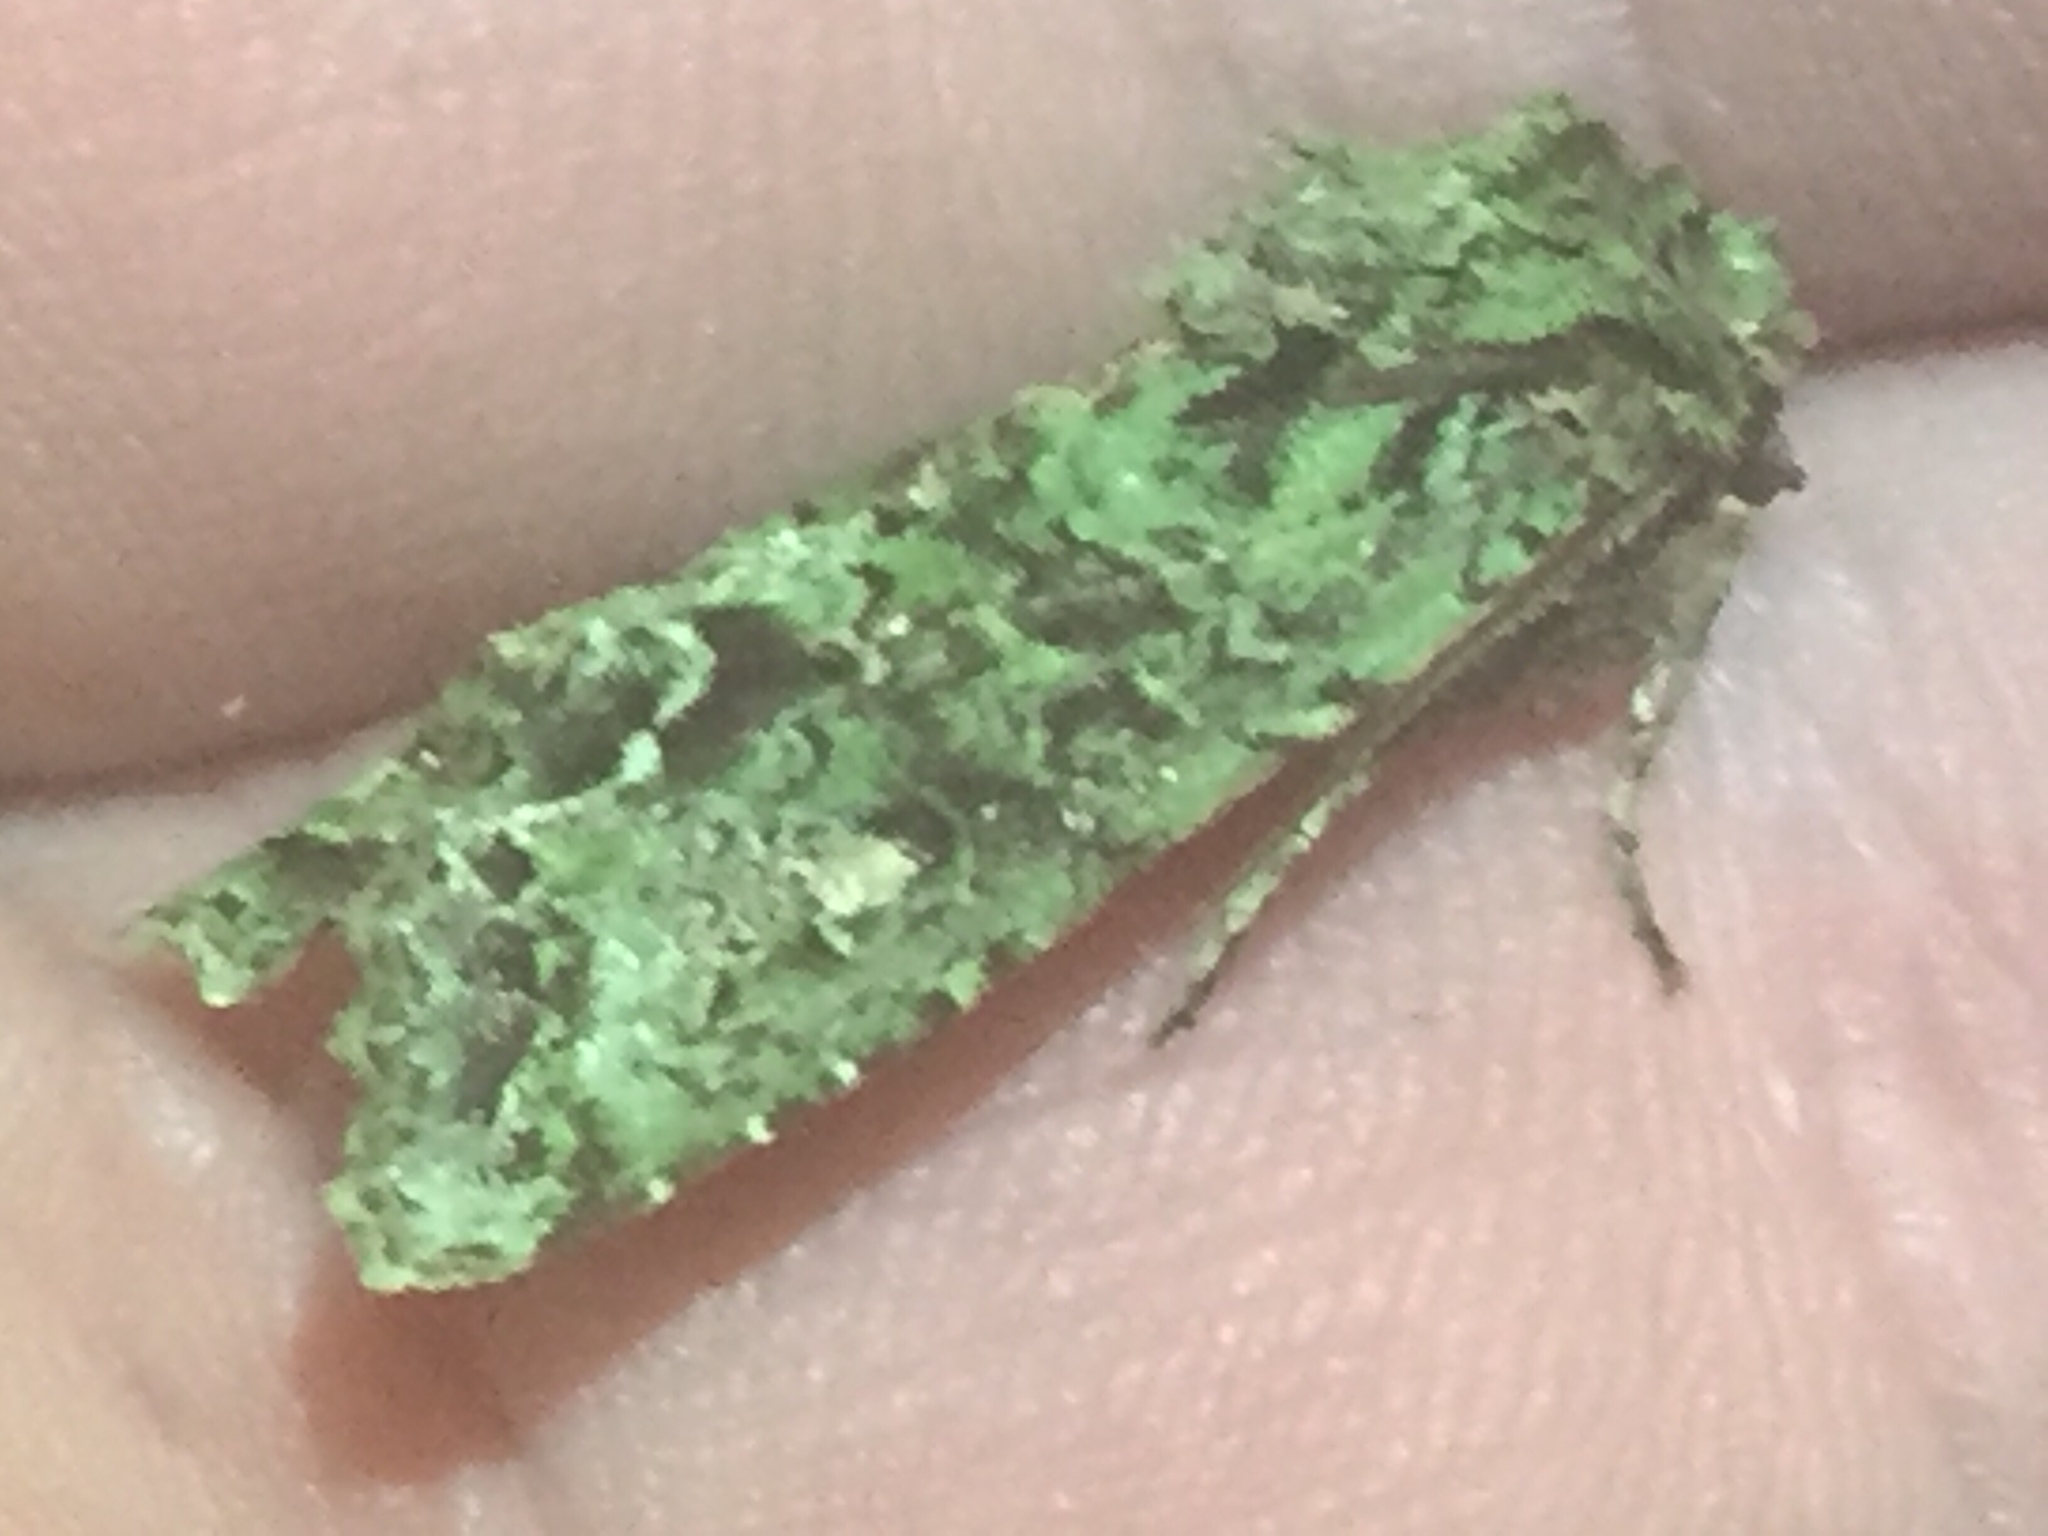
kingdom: Animalia
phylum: Arthropoda
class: Insecta
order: Lepidoptera
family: Noctuidae
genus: Ichneutica
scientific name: Ichneutica
